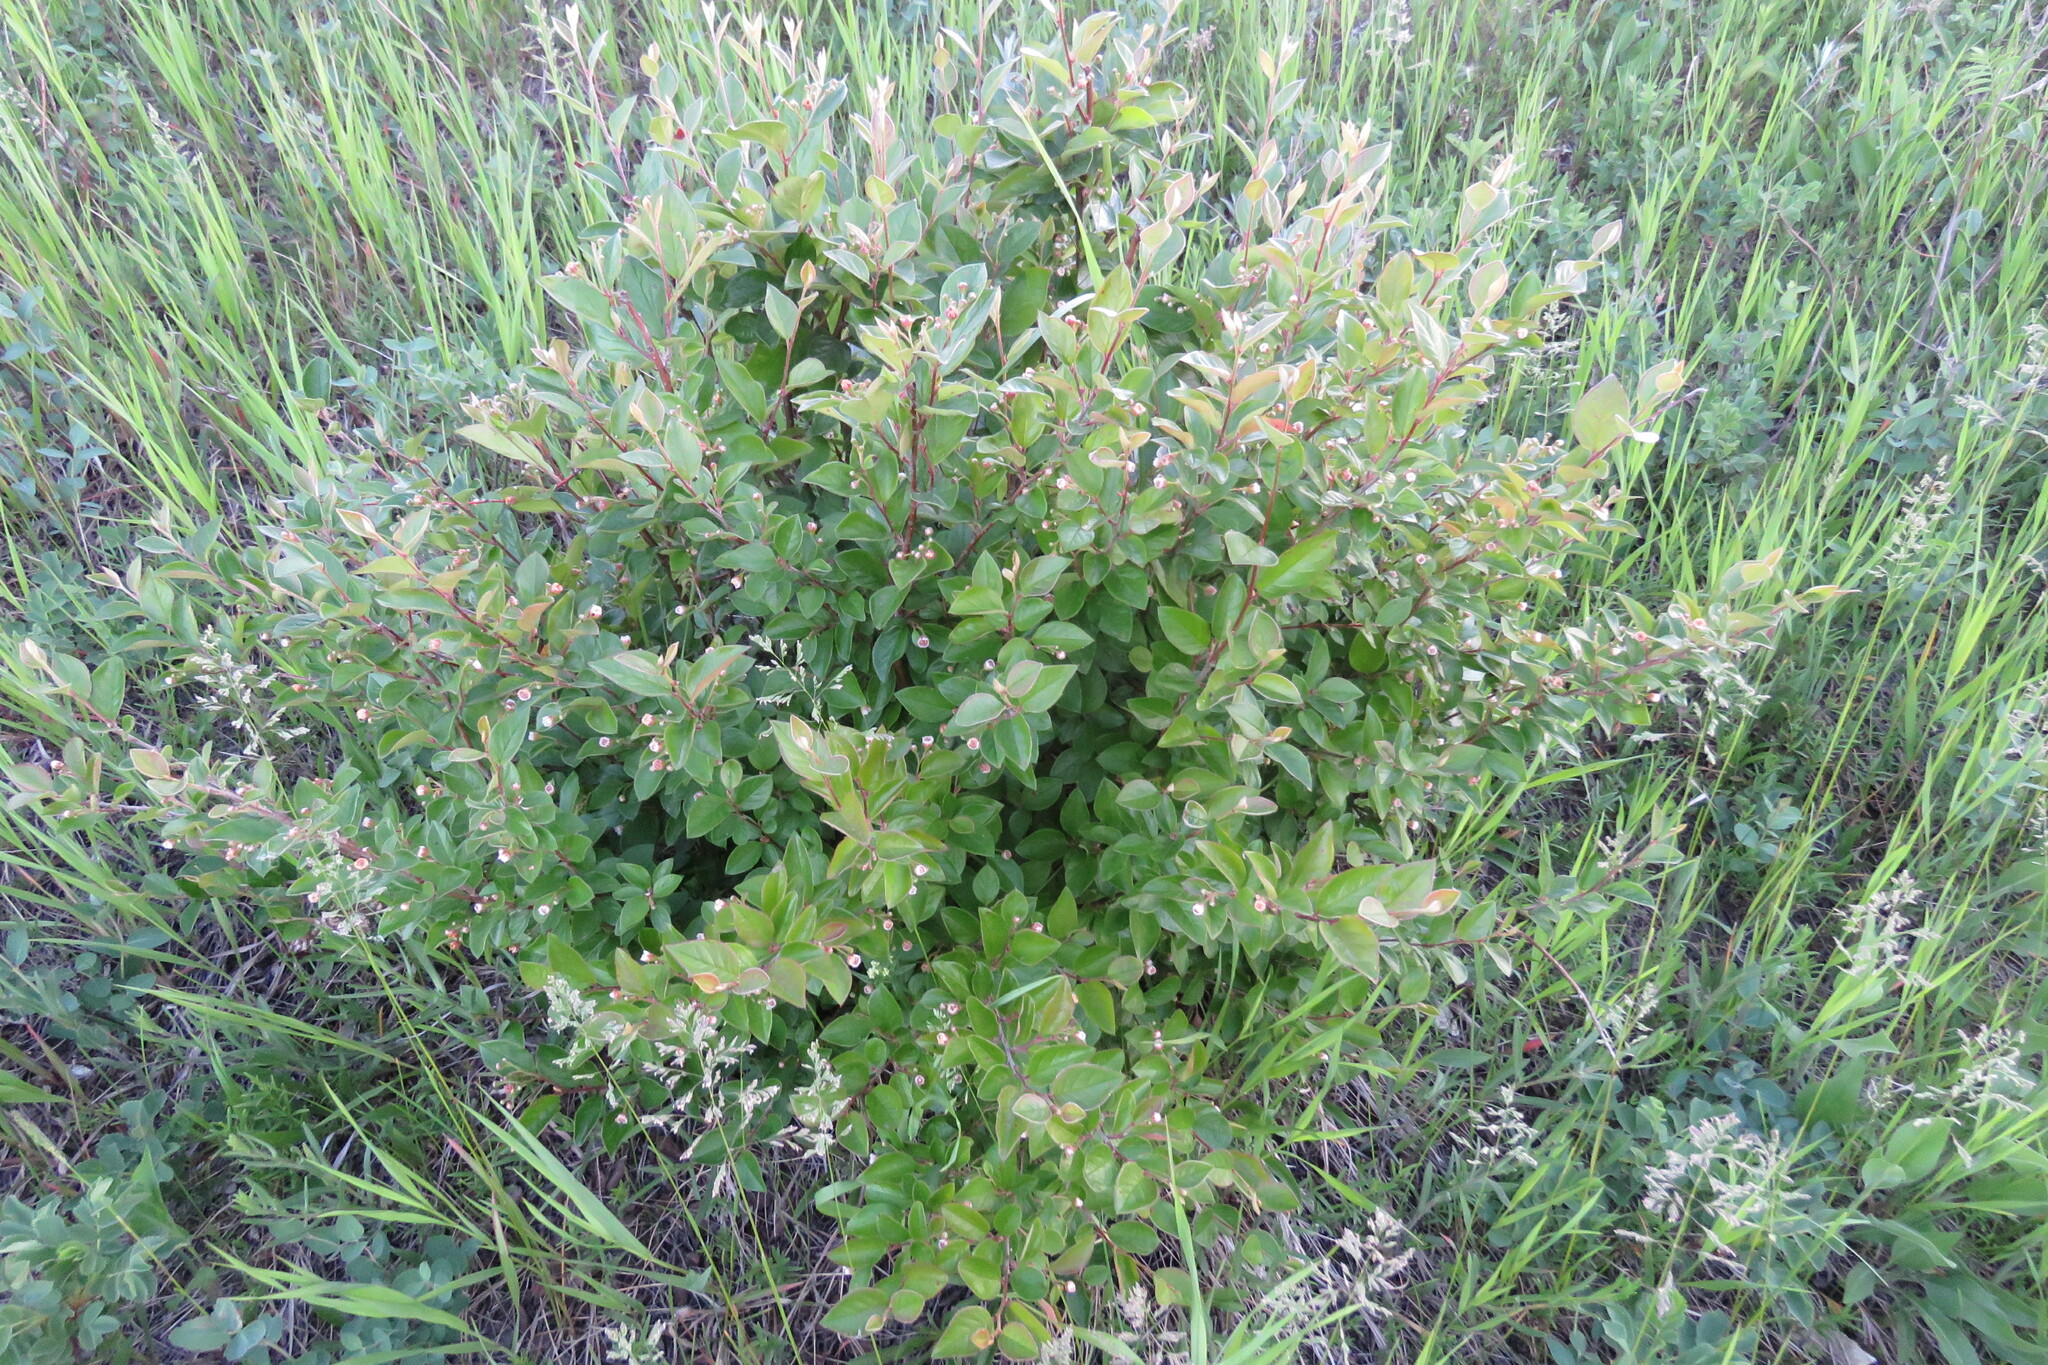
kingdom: Plantae
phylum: Tracheophyta
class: Magnoliopsida
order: Rosales
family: Rosaceae
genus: Cotoneaster
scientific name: Cotoneaster acutifolius
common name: Peking cotoneaster
